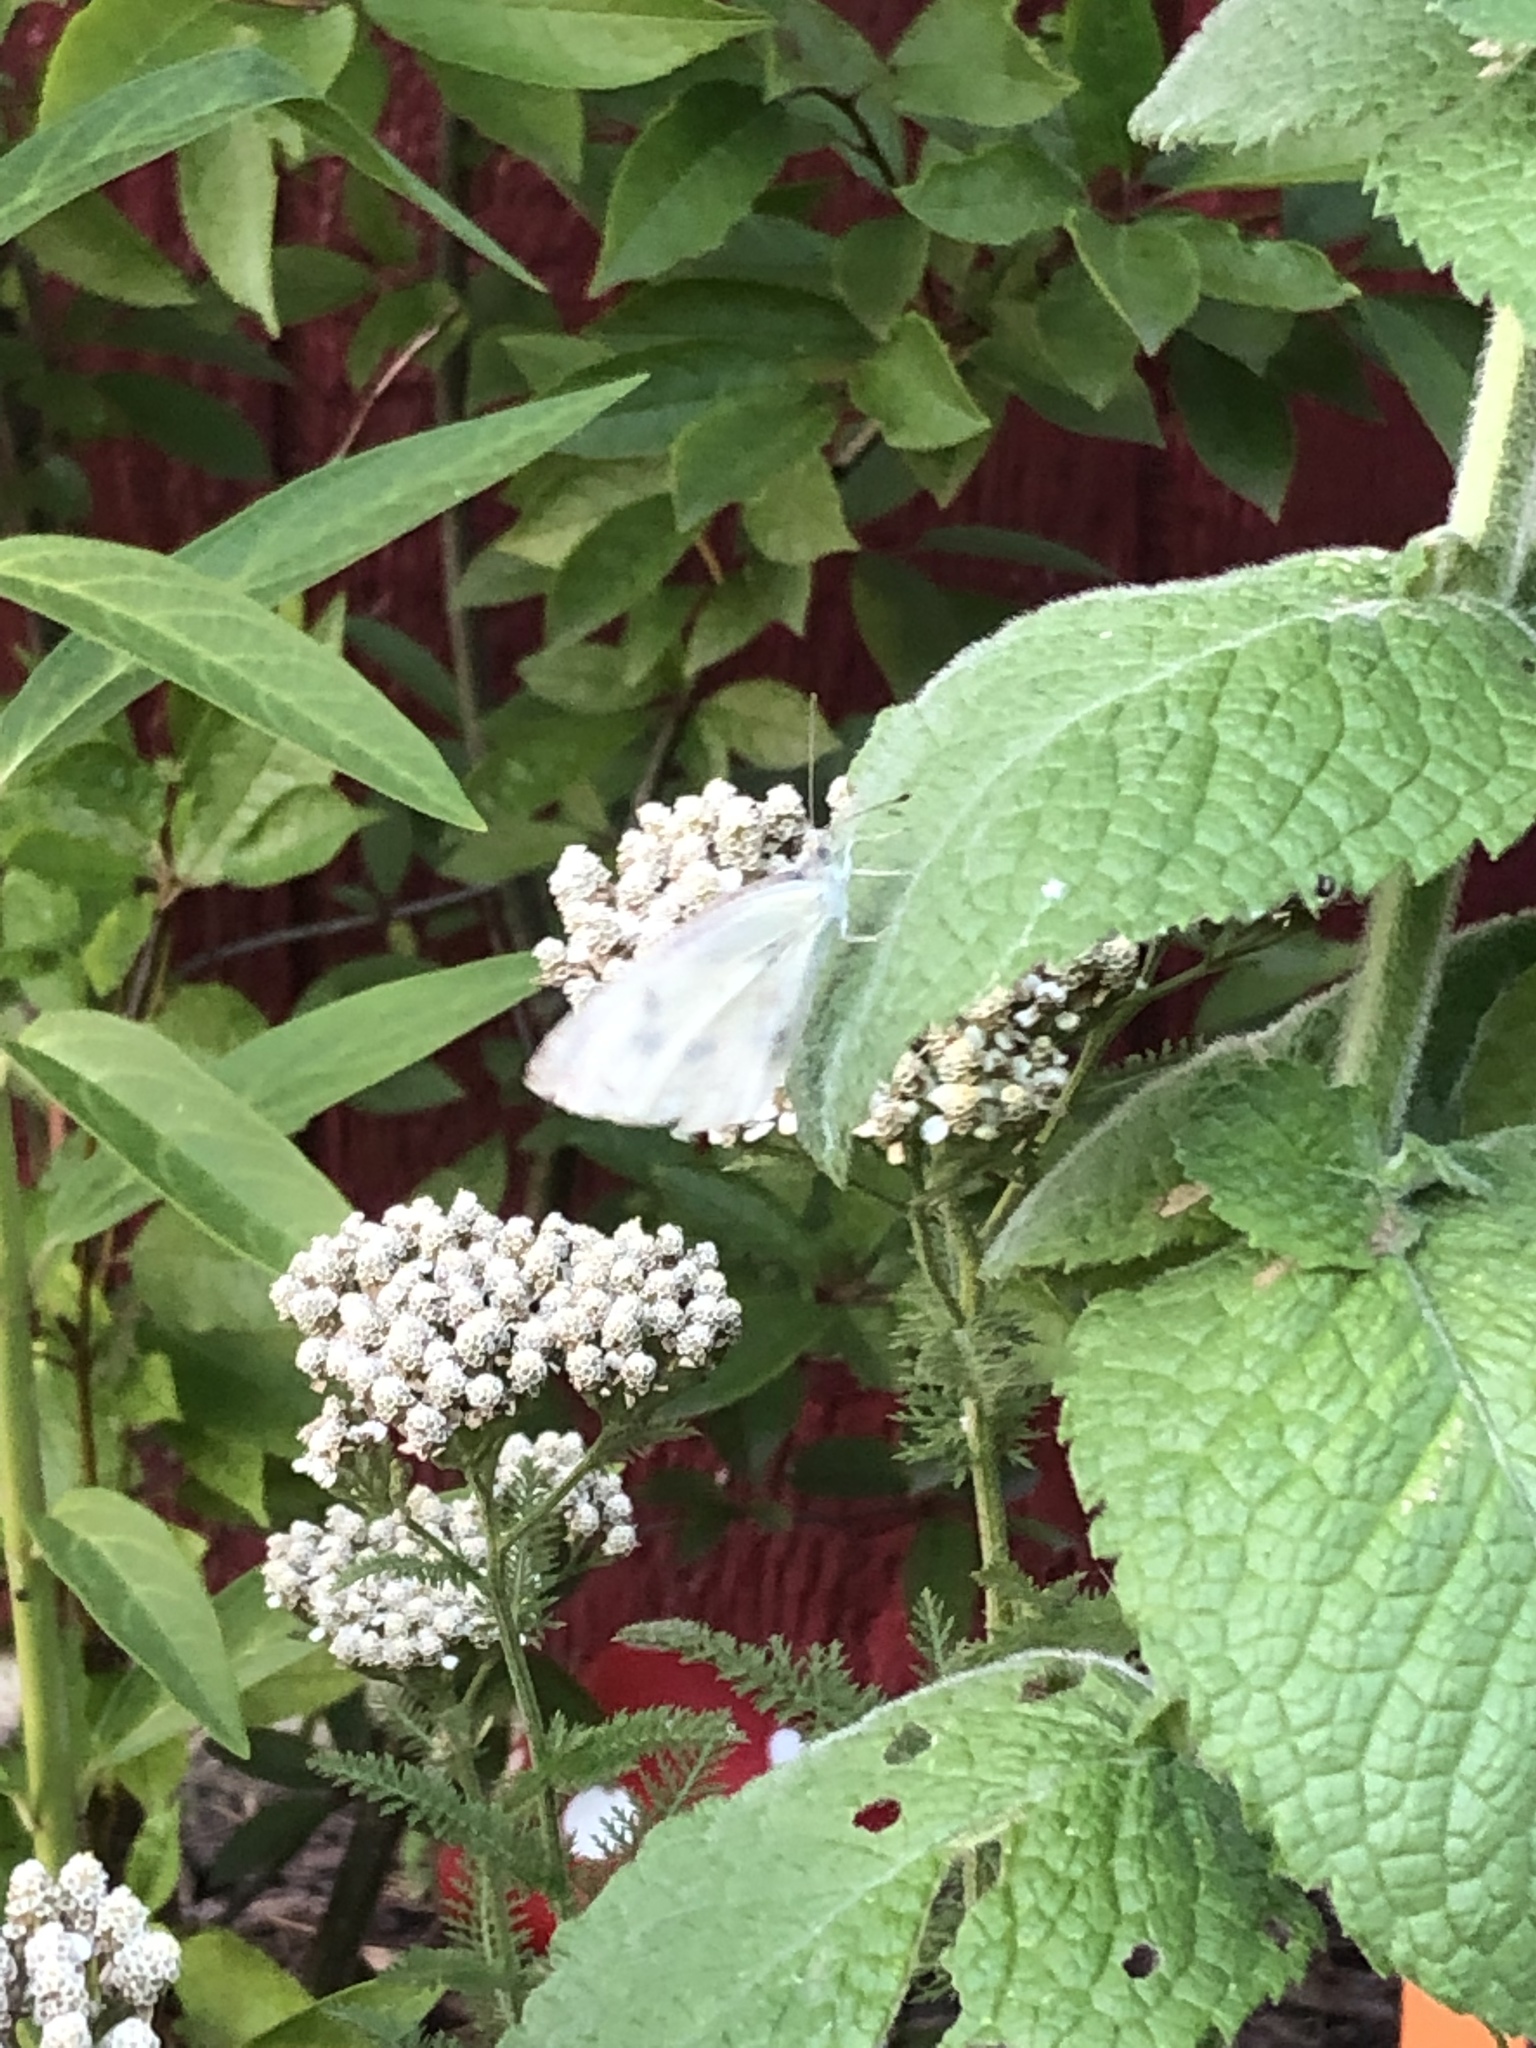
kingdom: Animalia
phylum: Arthropoda
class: Insecta
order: Lepidoptera
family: Pieridae
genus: Pieris
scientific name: Pieris rapae
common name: Small white
